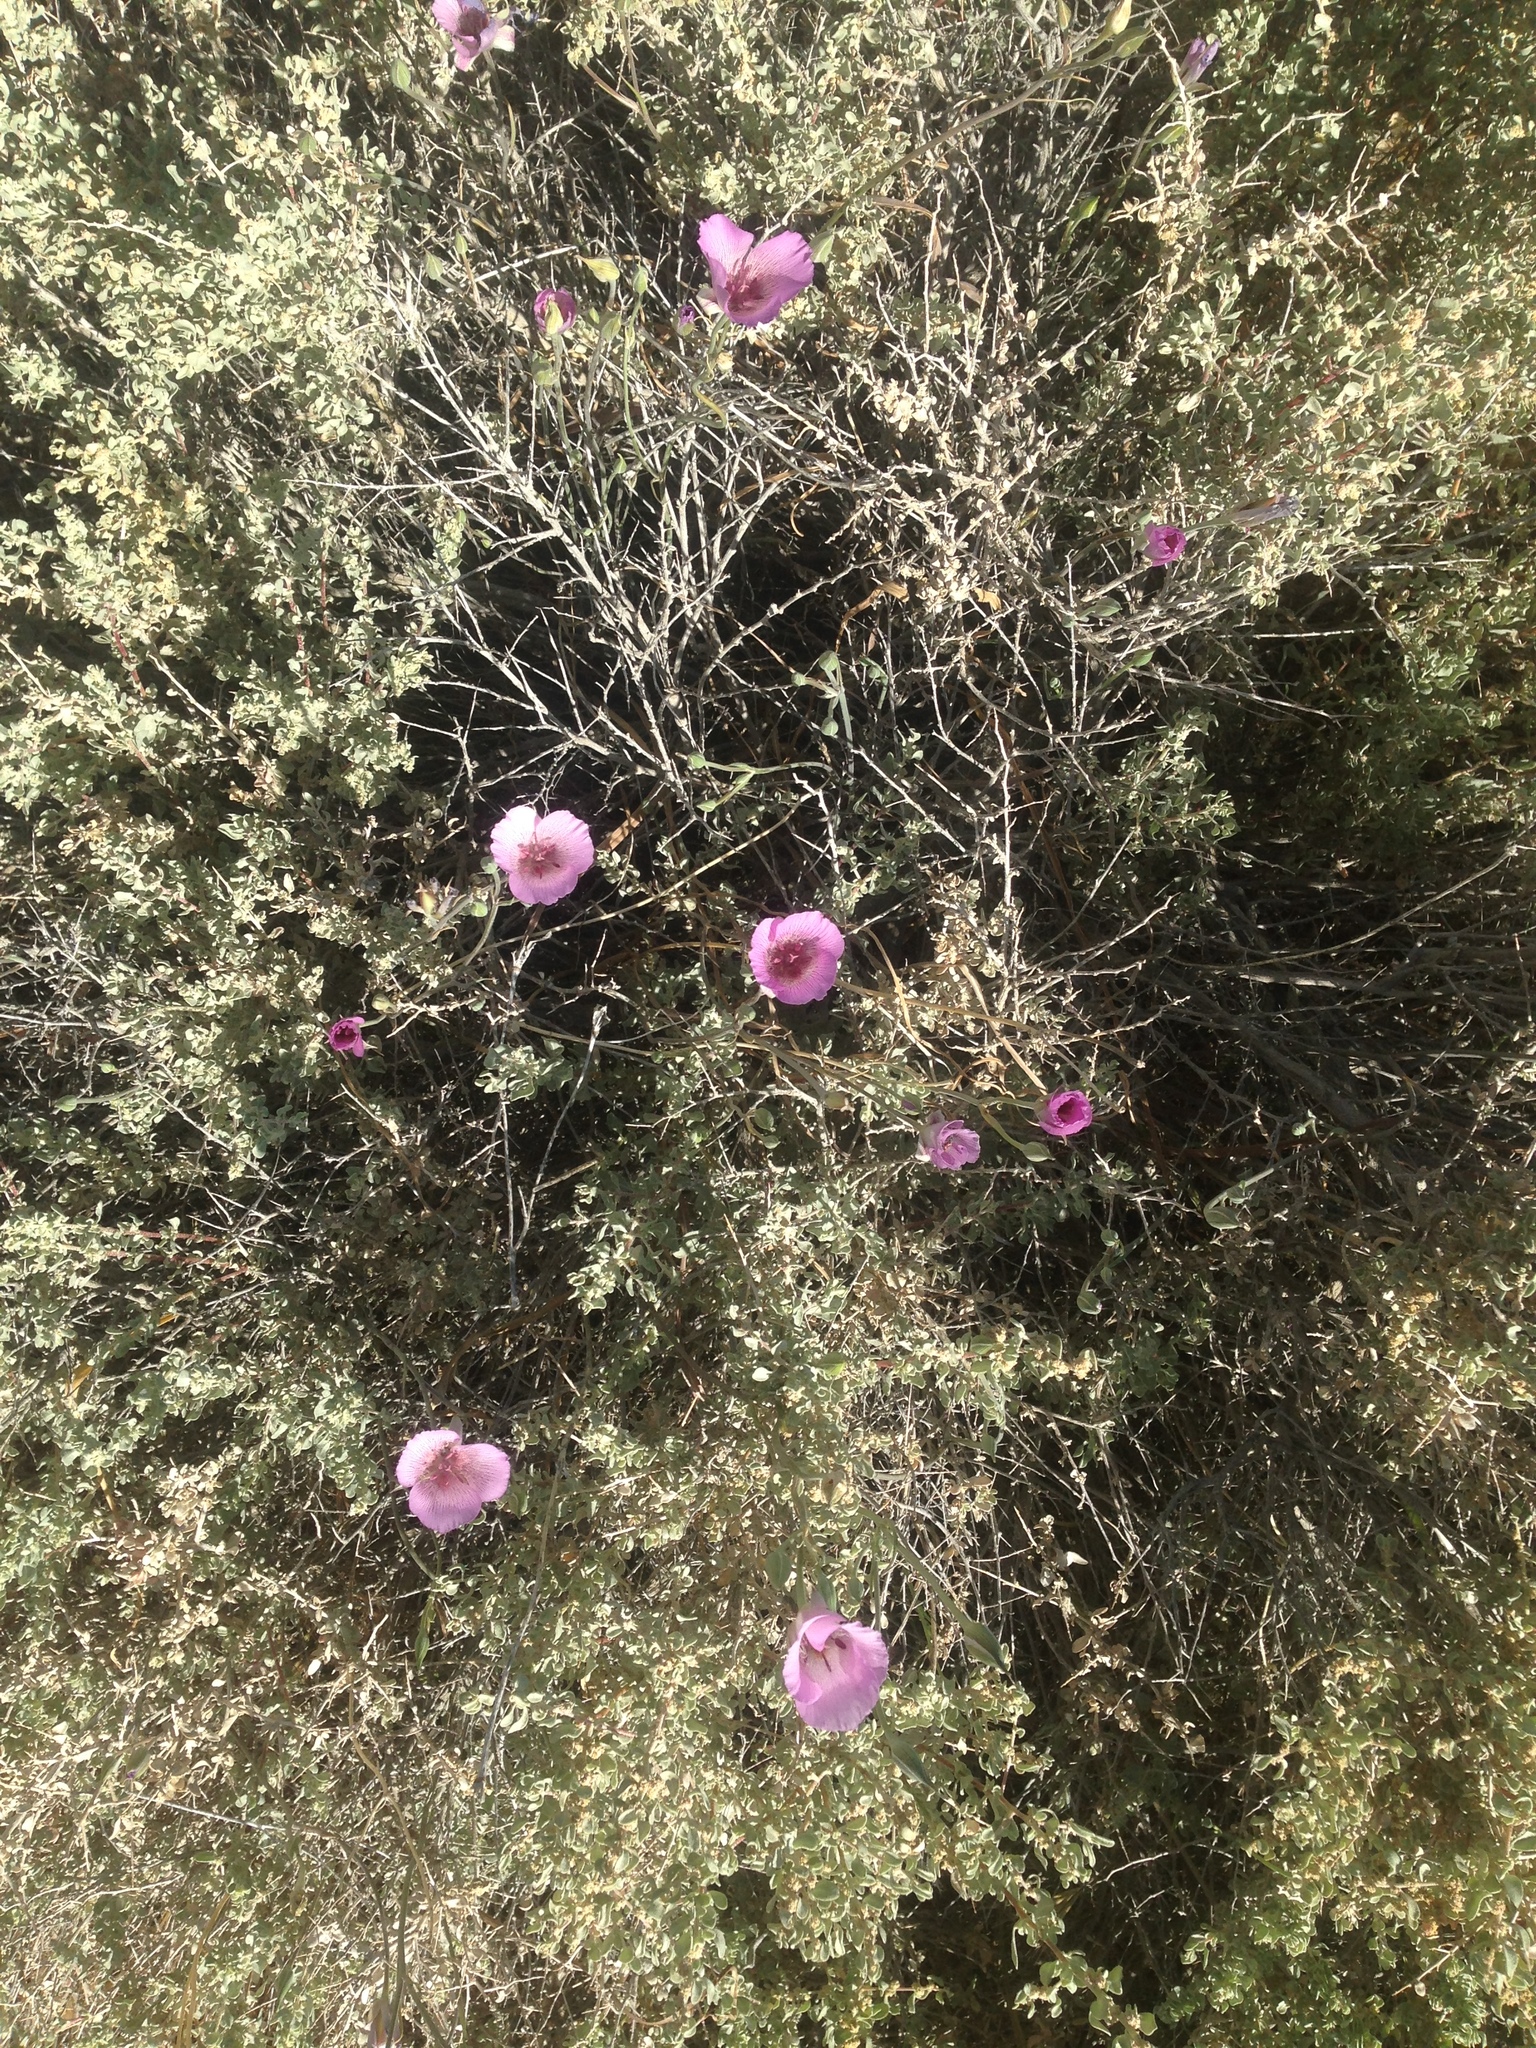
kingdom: Plantae
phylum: Tracheophyta
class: Liliopsida
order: Liliales
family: Liliaceae
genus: Calochortus
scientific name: Calochortus striatus
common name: Alkali mariposa-lily
